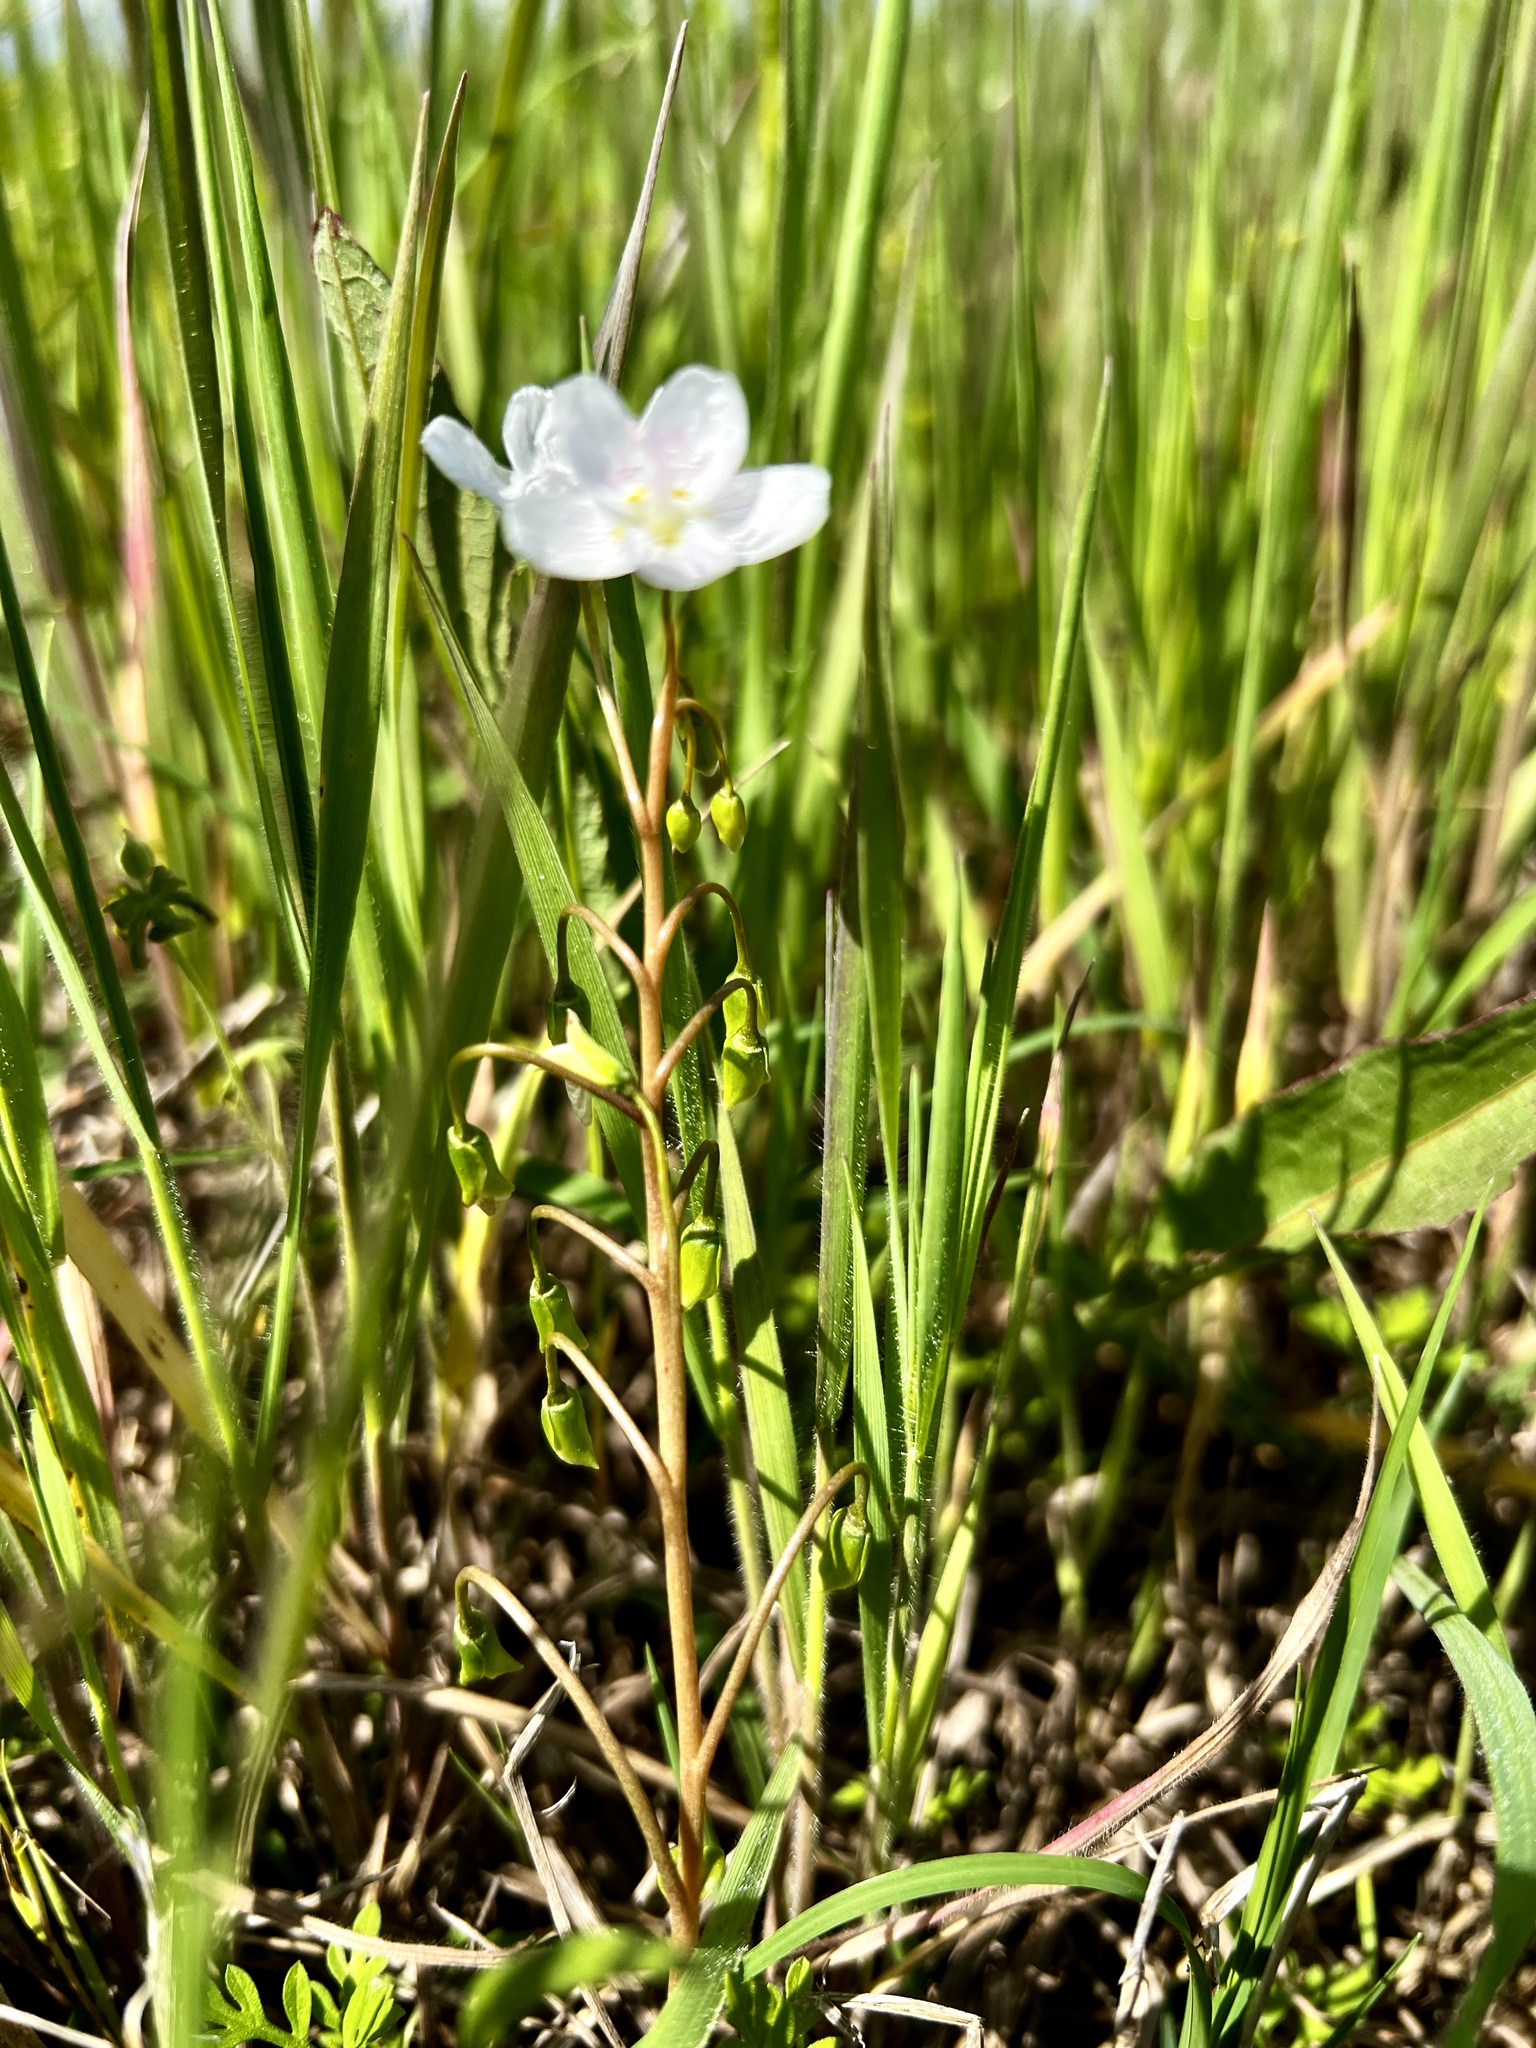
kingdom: Plantae
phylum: Tracheophyta
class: Magnoliopsida
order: Caryophyllales
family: Montiaceae
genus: Claytonia
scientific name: Claytonia virginica
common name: Virginia springbeauty
